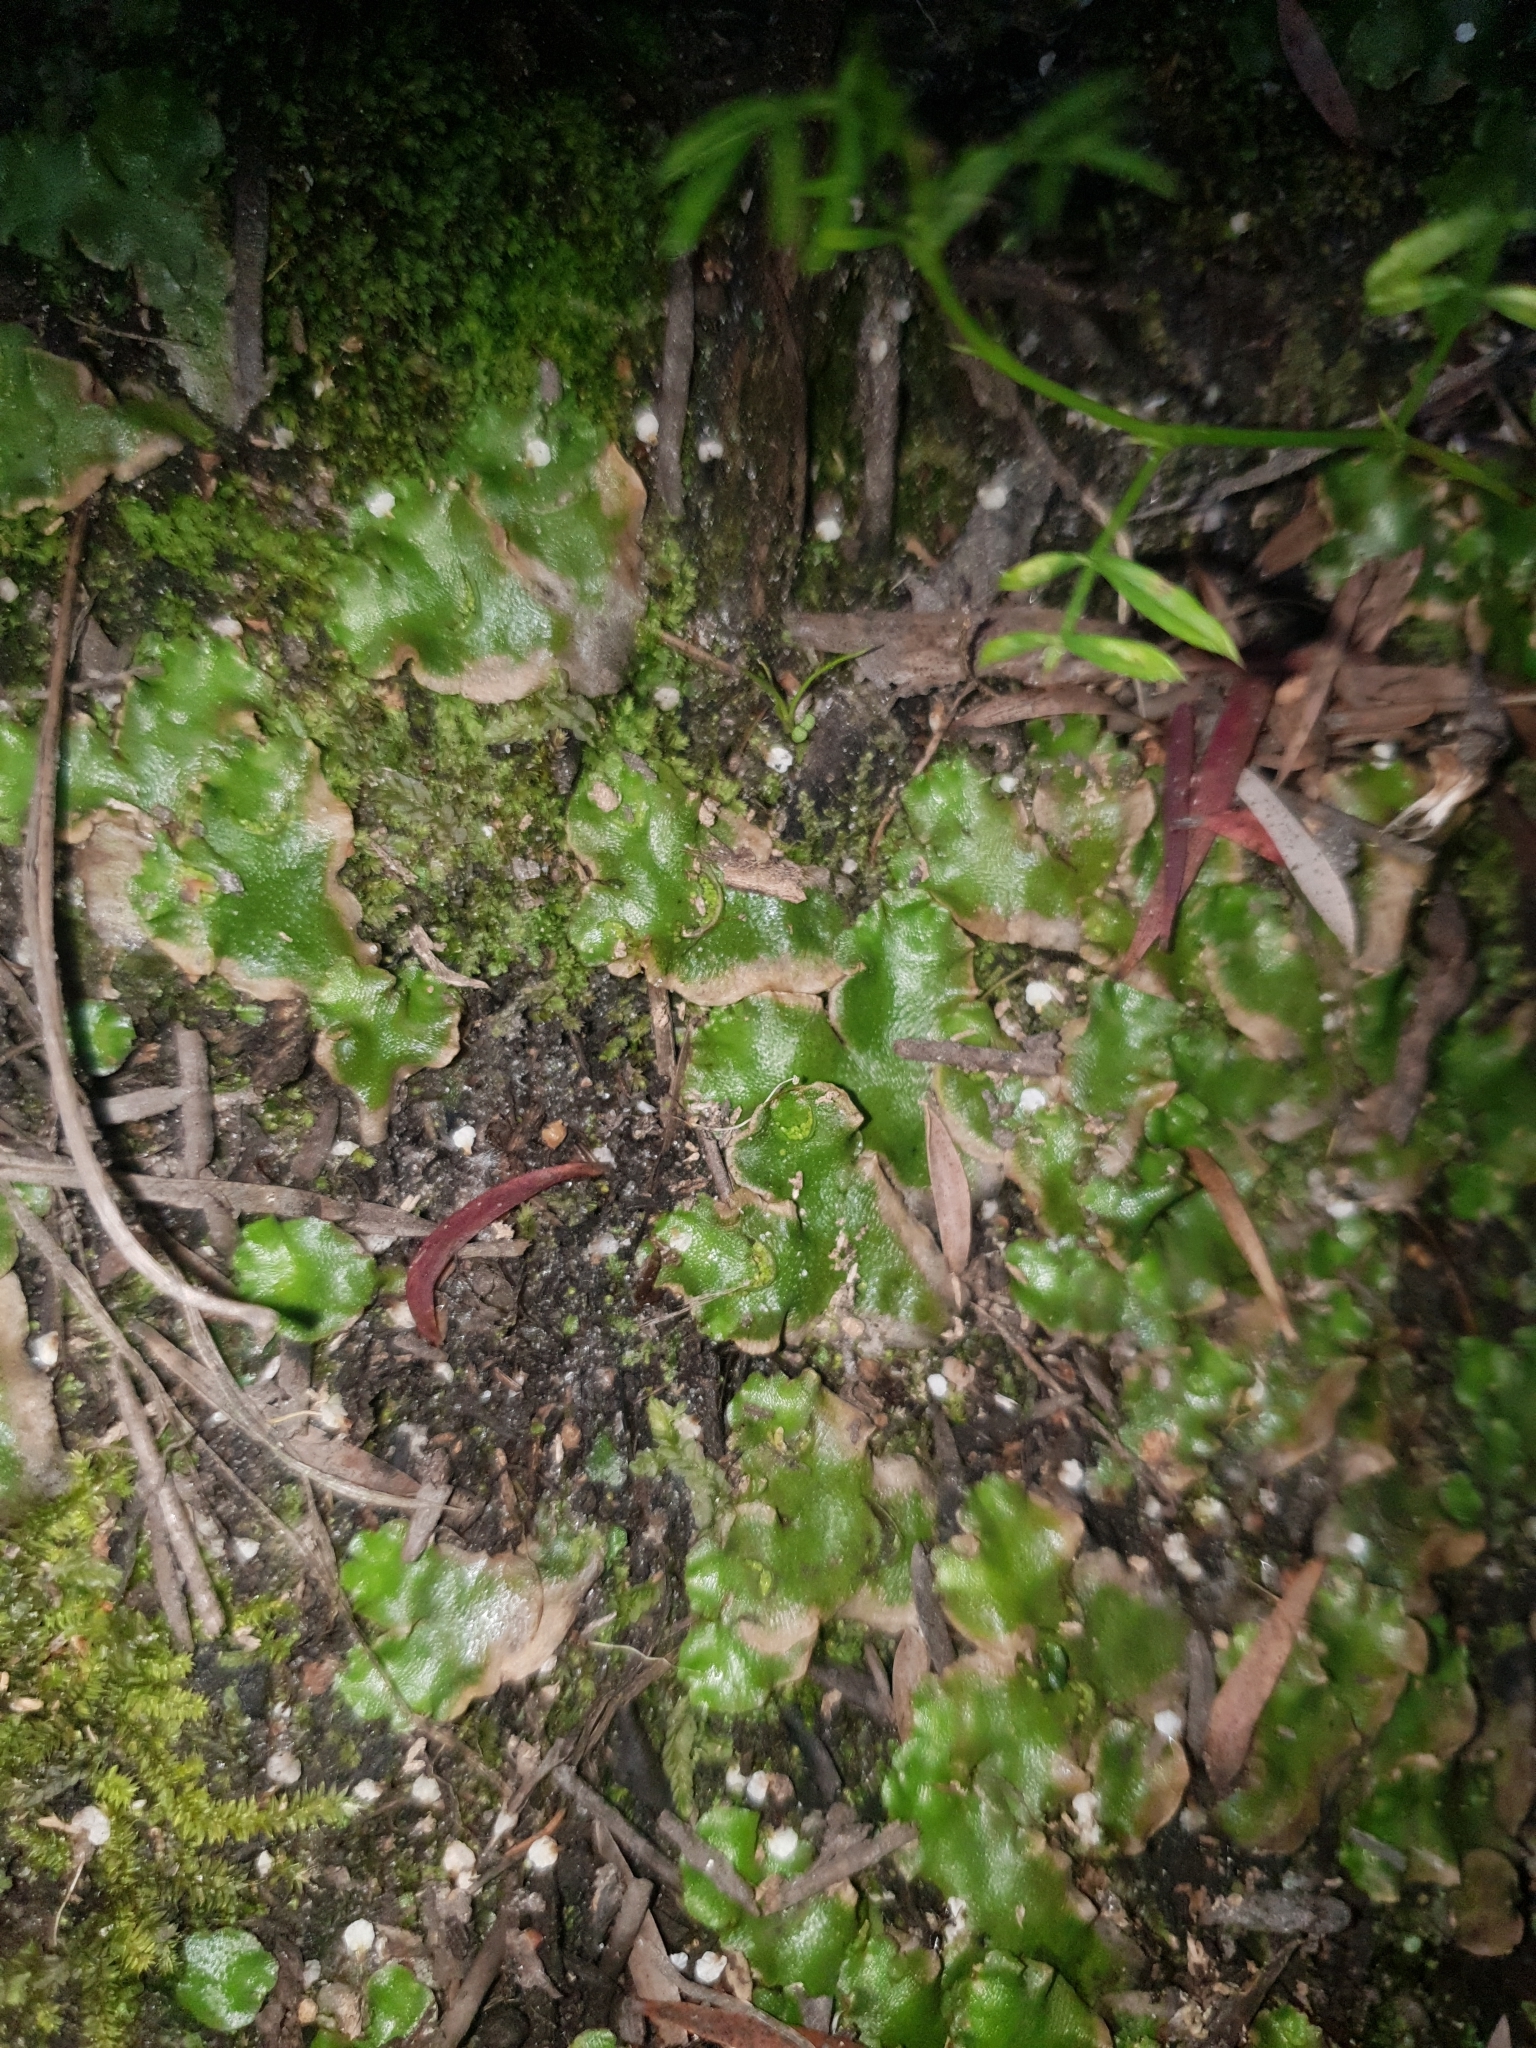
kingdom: Plantae
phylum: Marchantiophyta
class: Marchantiopsida
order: Lunulariales
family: Lunulariaceae
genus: Lunularia
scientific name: Lunularia cruciata
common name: Crescent-cup liverwort
